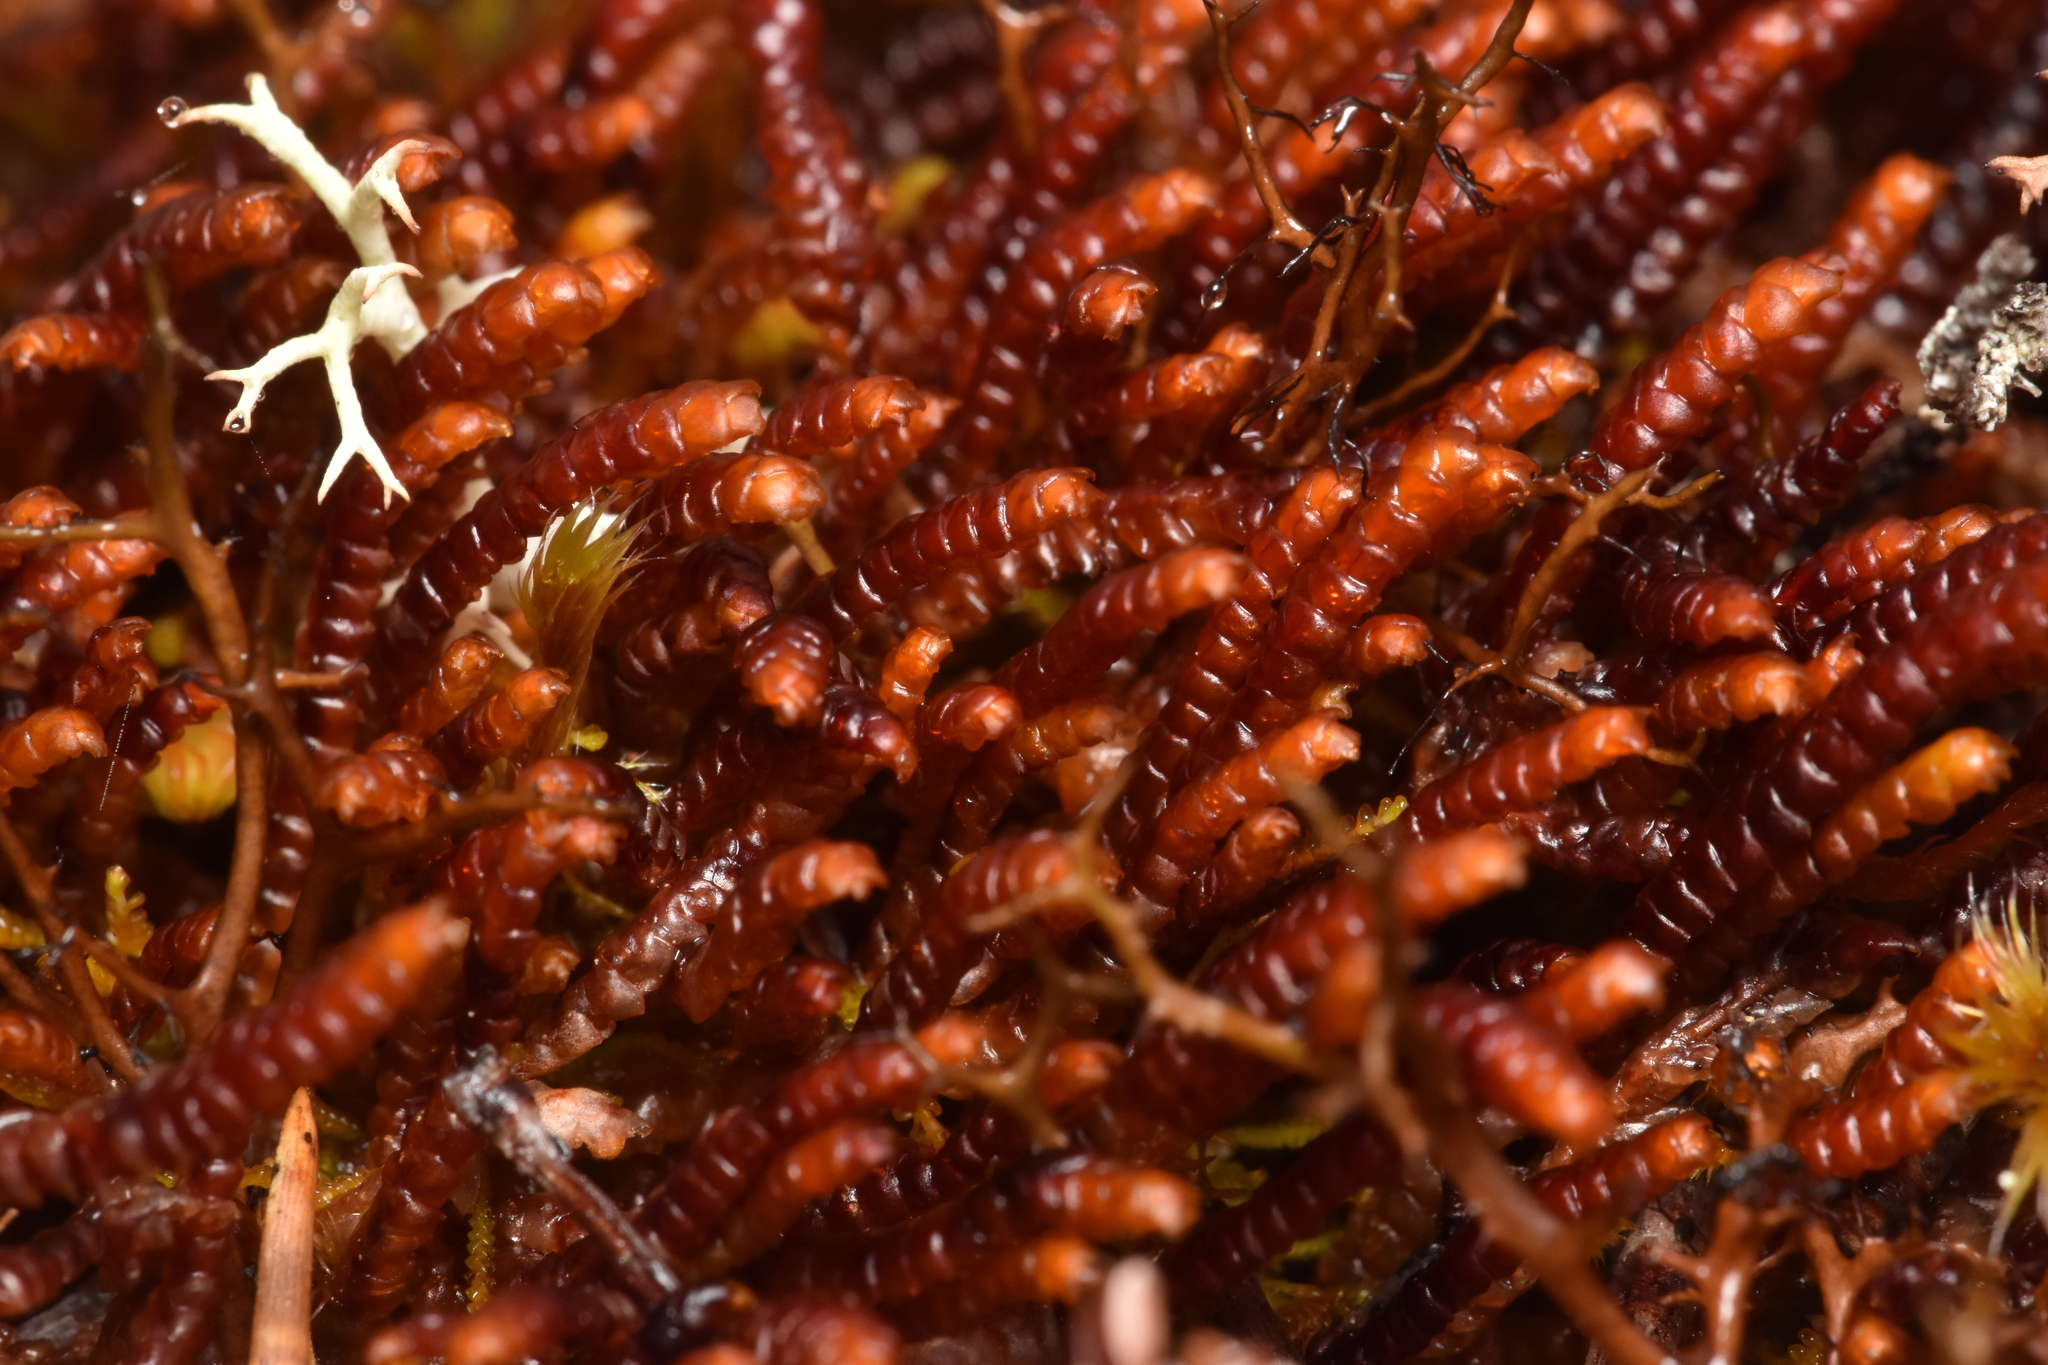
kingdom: Plantae
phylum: Marchantiophyta
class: Jungermanniopsida
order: Pleuroziales
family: Pleuroziaceae
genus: Pleurozia
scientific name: Pleurozia purpurea
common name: Purple spoonwort
